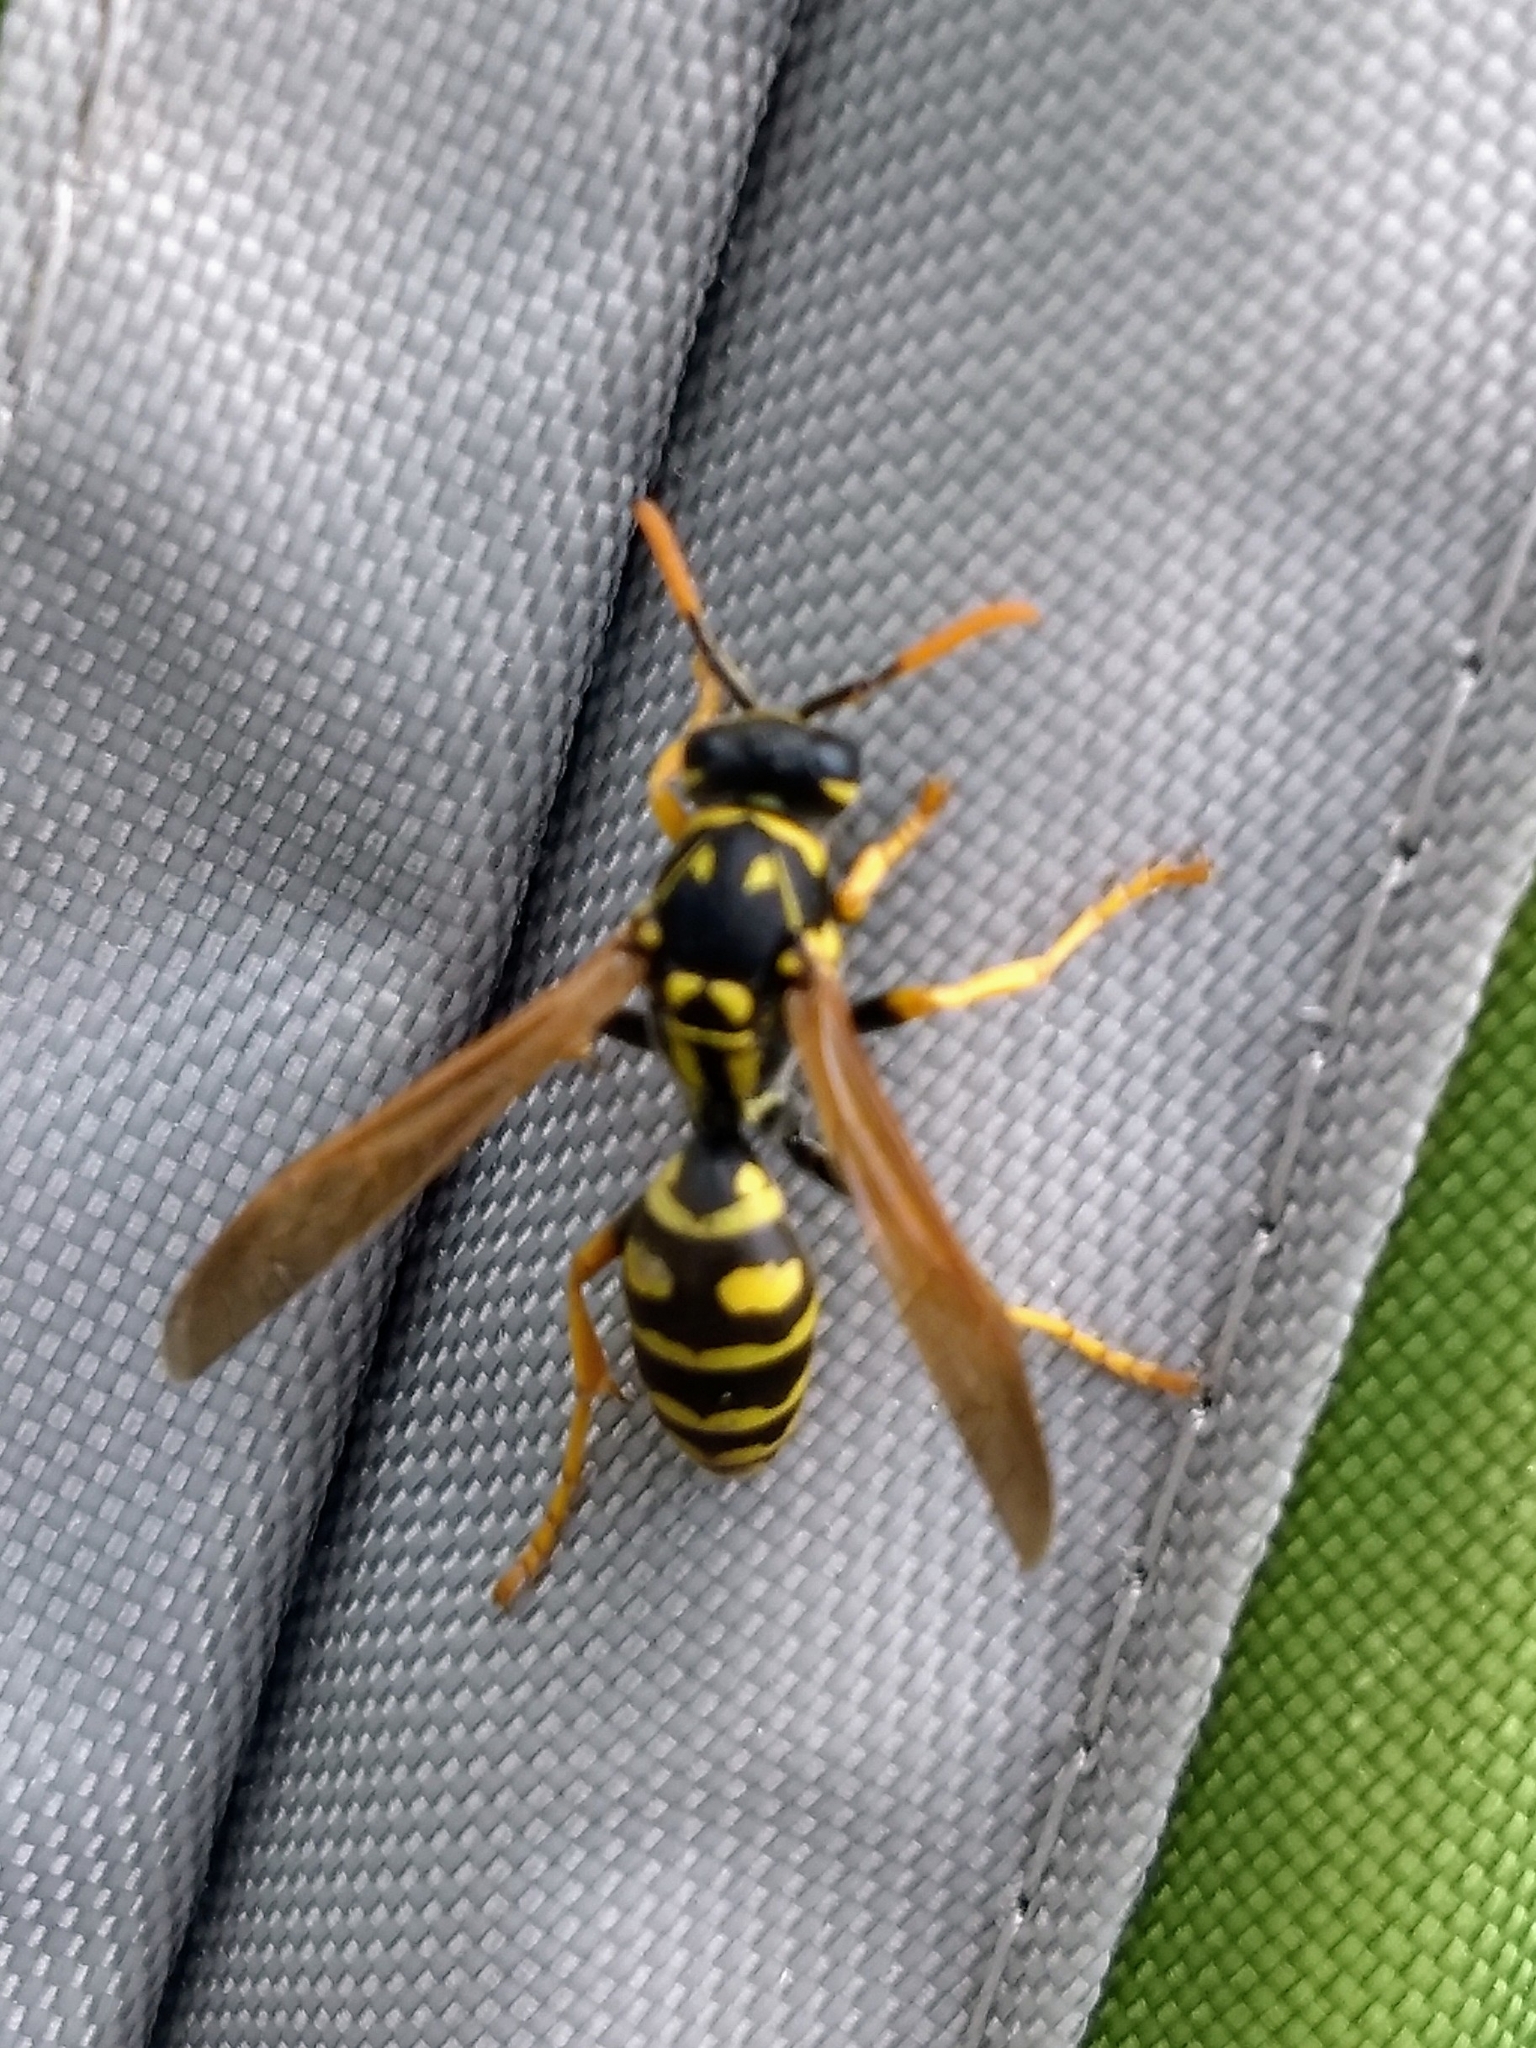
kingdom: Animalia
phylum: Arthropoda
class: Insecta
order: Hymenoptera
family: Eumenidae
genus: Polistes
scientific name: Polistes dominula
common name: Paper wasp
